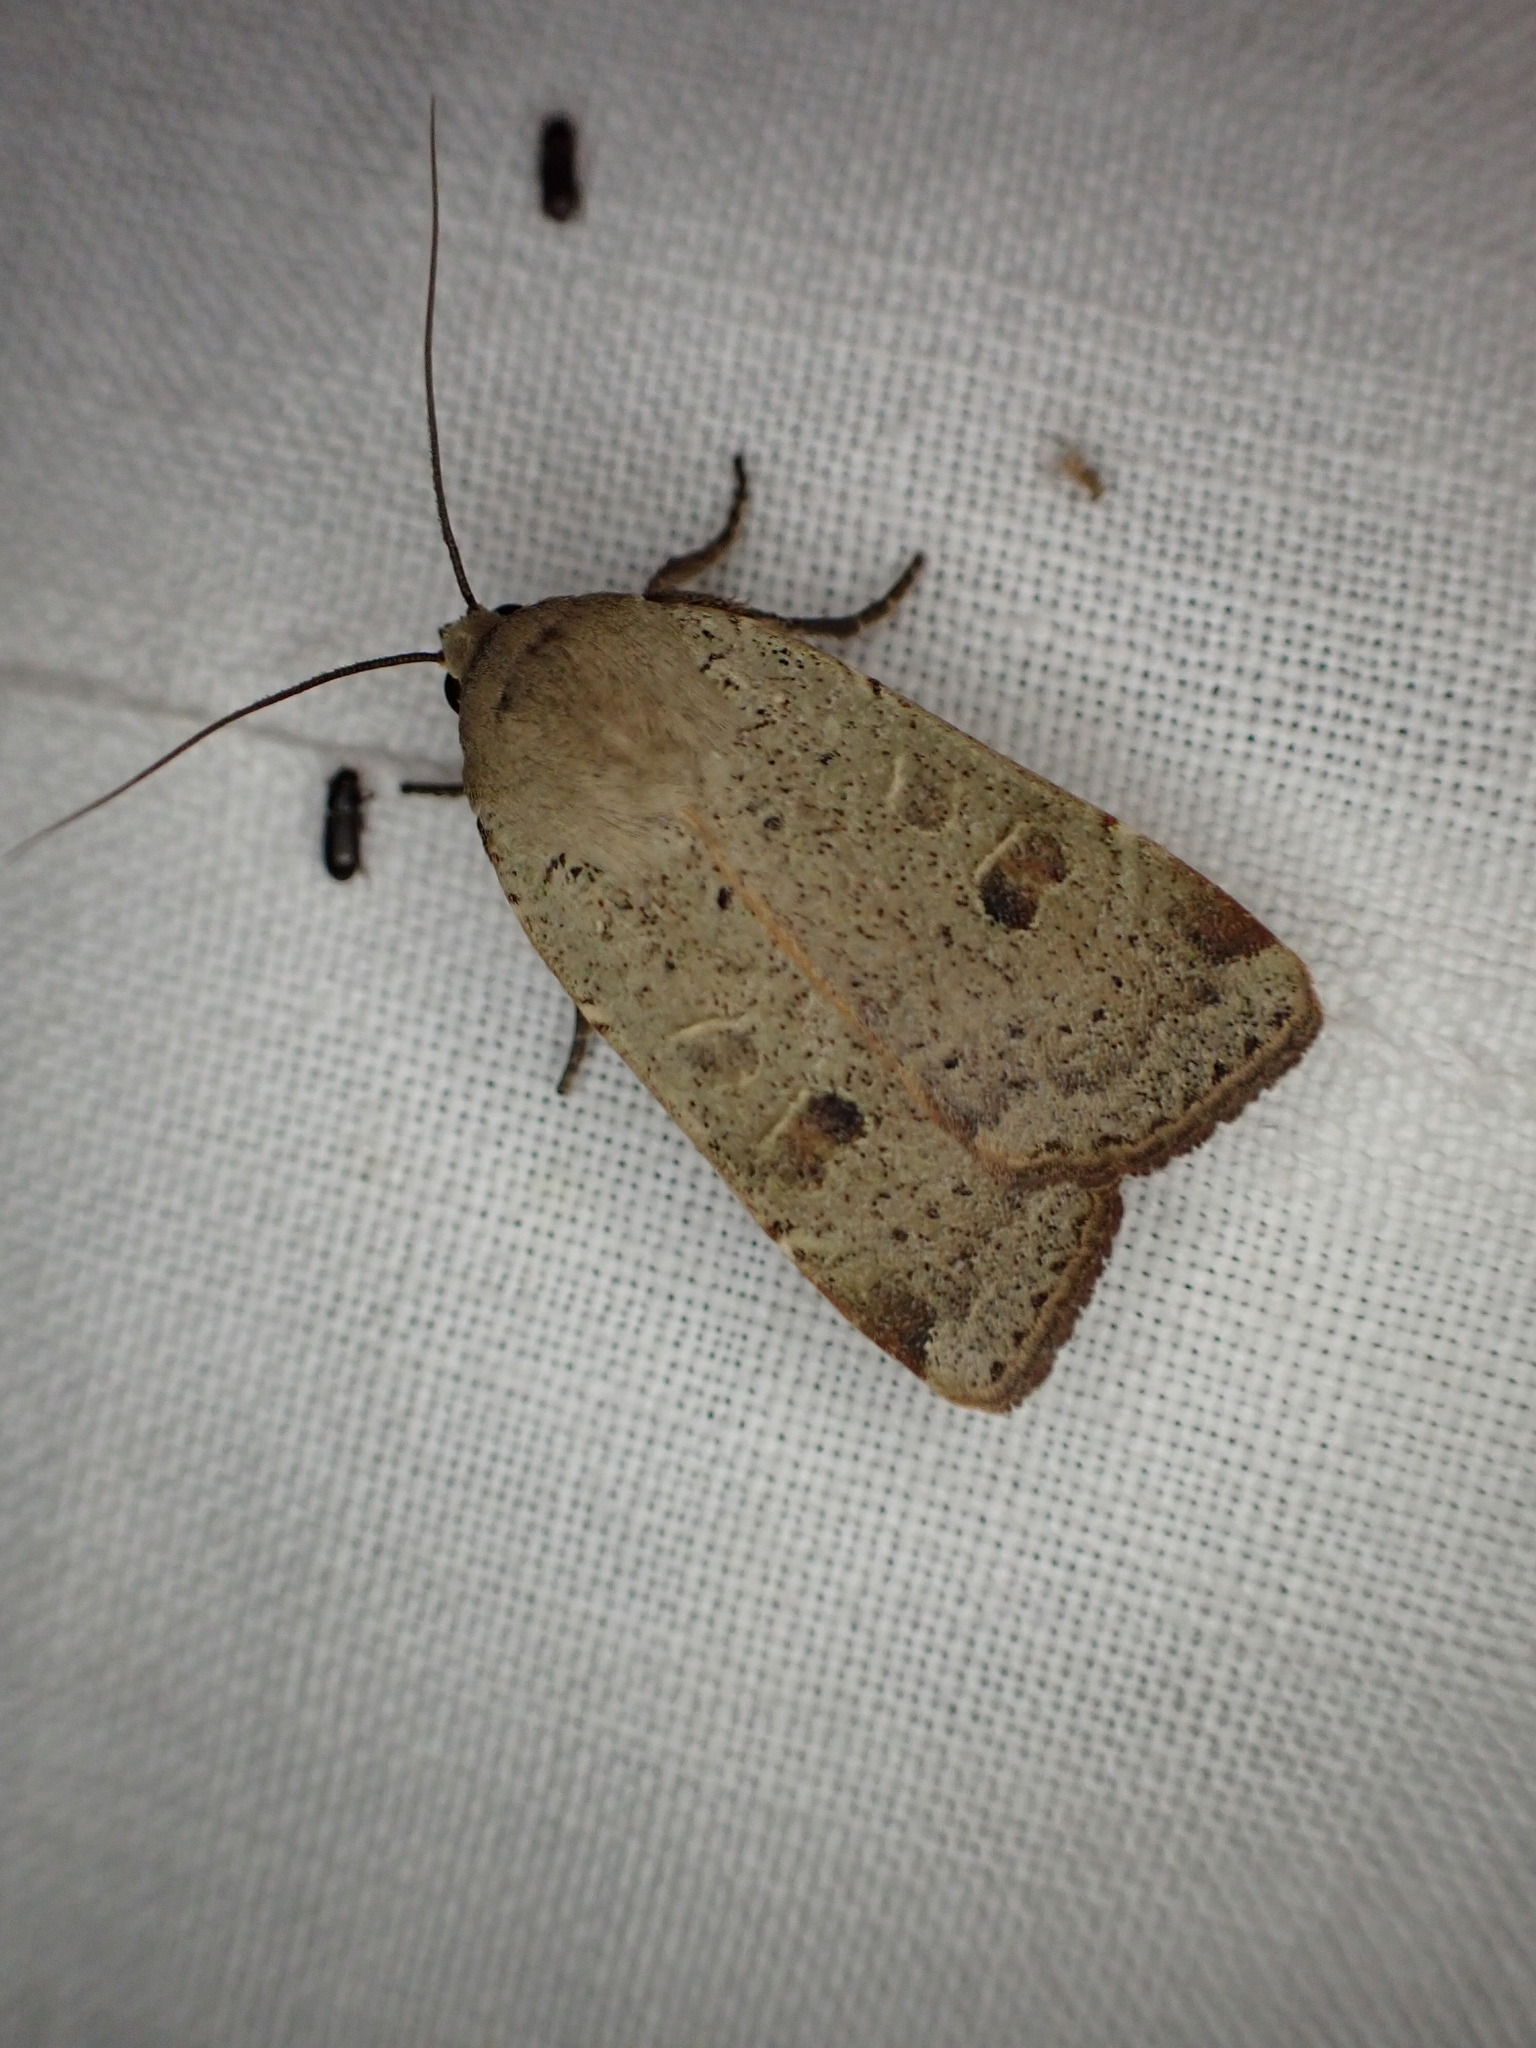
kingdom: Animalia
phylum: Arthropoda
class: Insecta
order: Lepidoptera
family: Noctuidae
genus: Noctua
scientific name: Noctua comes
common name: Lesser yellow underwing
